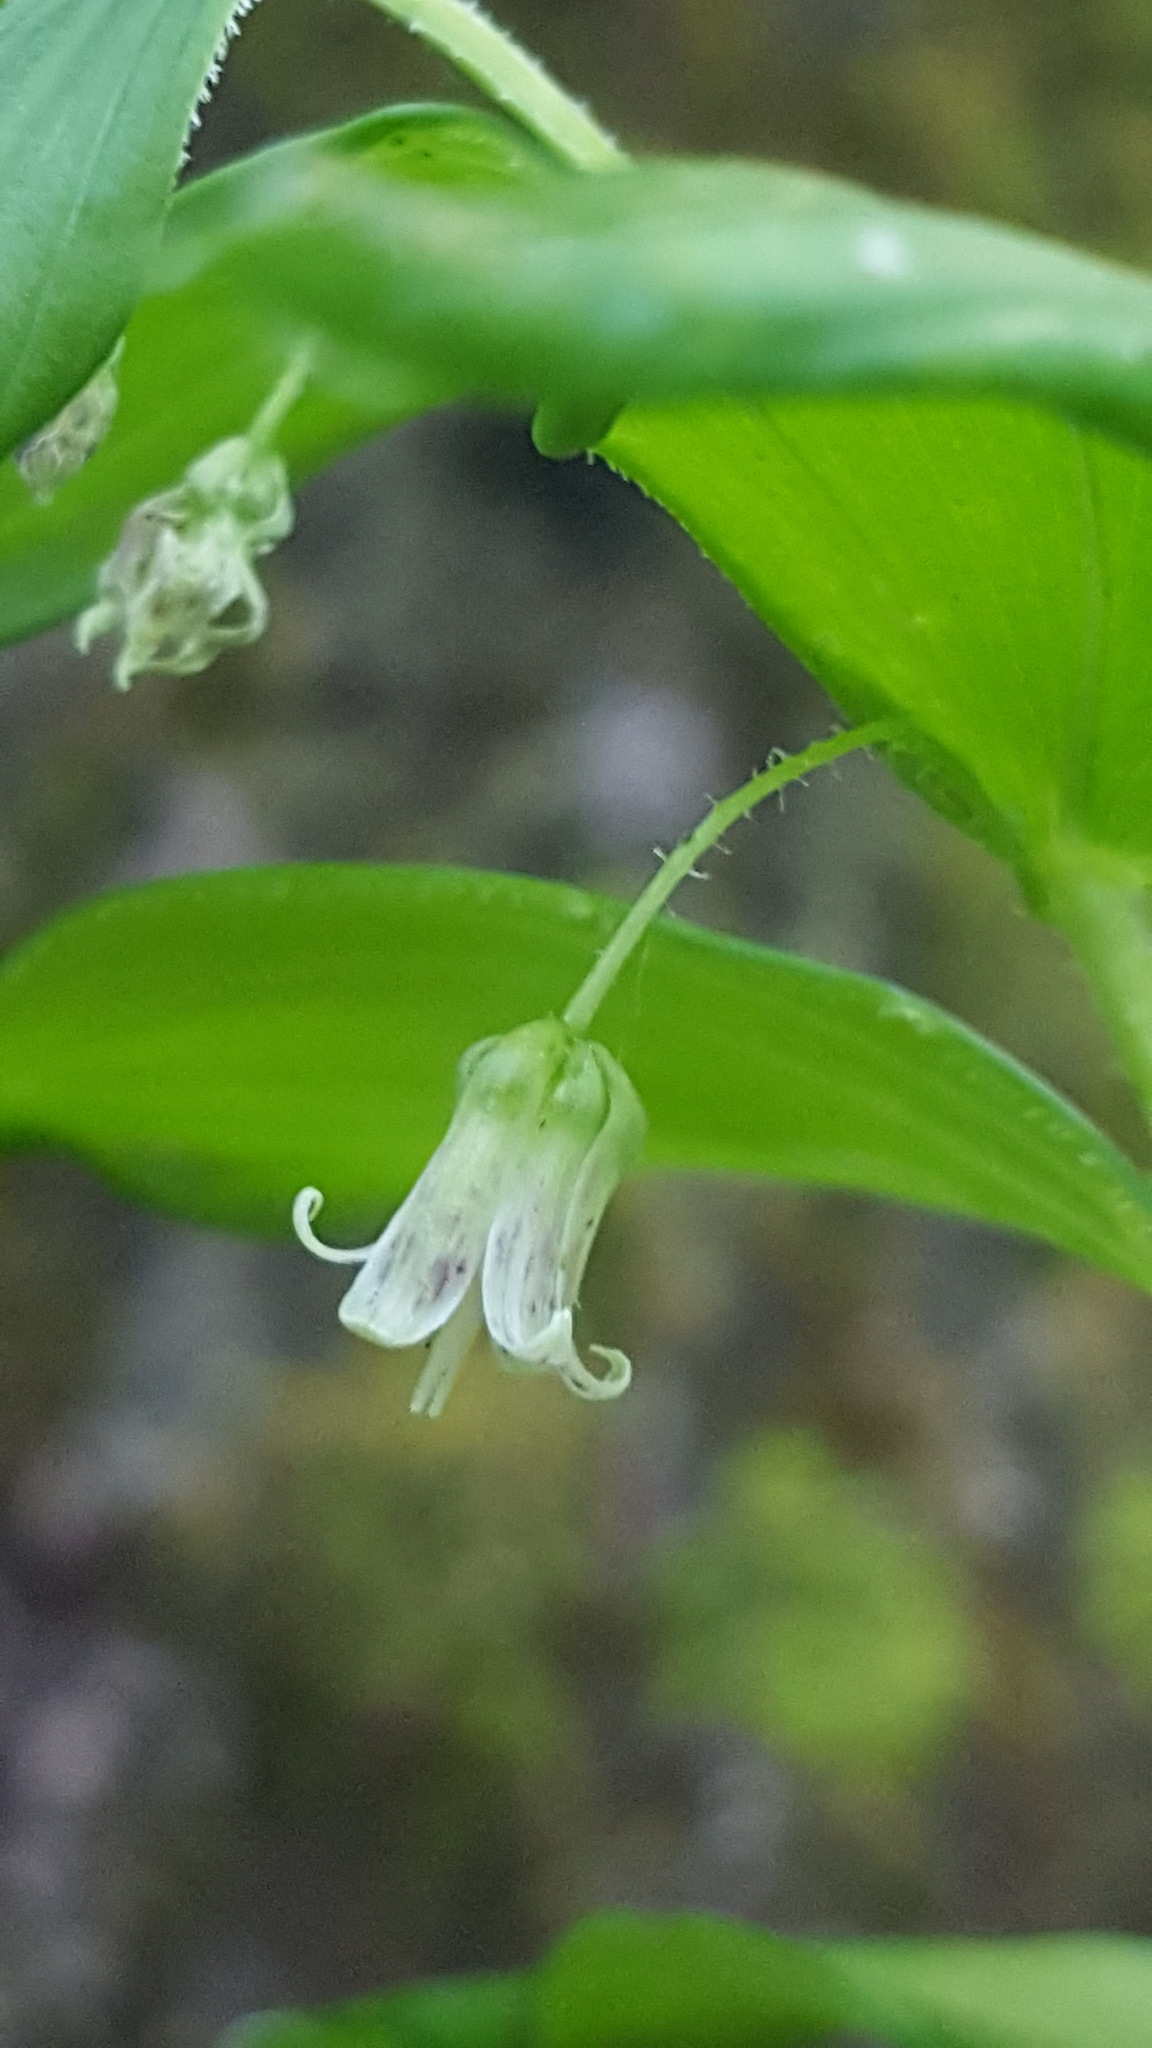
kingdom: Plantae
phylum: Tracheophyta
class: Liliopsida
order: Liliales
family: Liliaceae
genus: Streptopus
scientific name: Streptopus lanceolatus
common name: Rose mandarin
